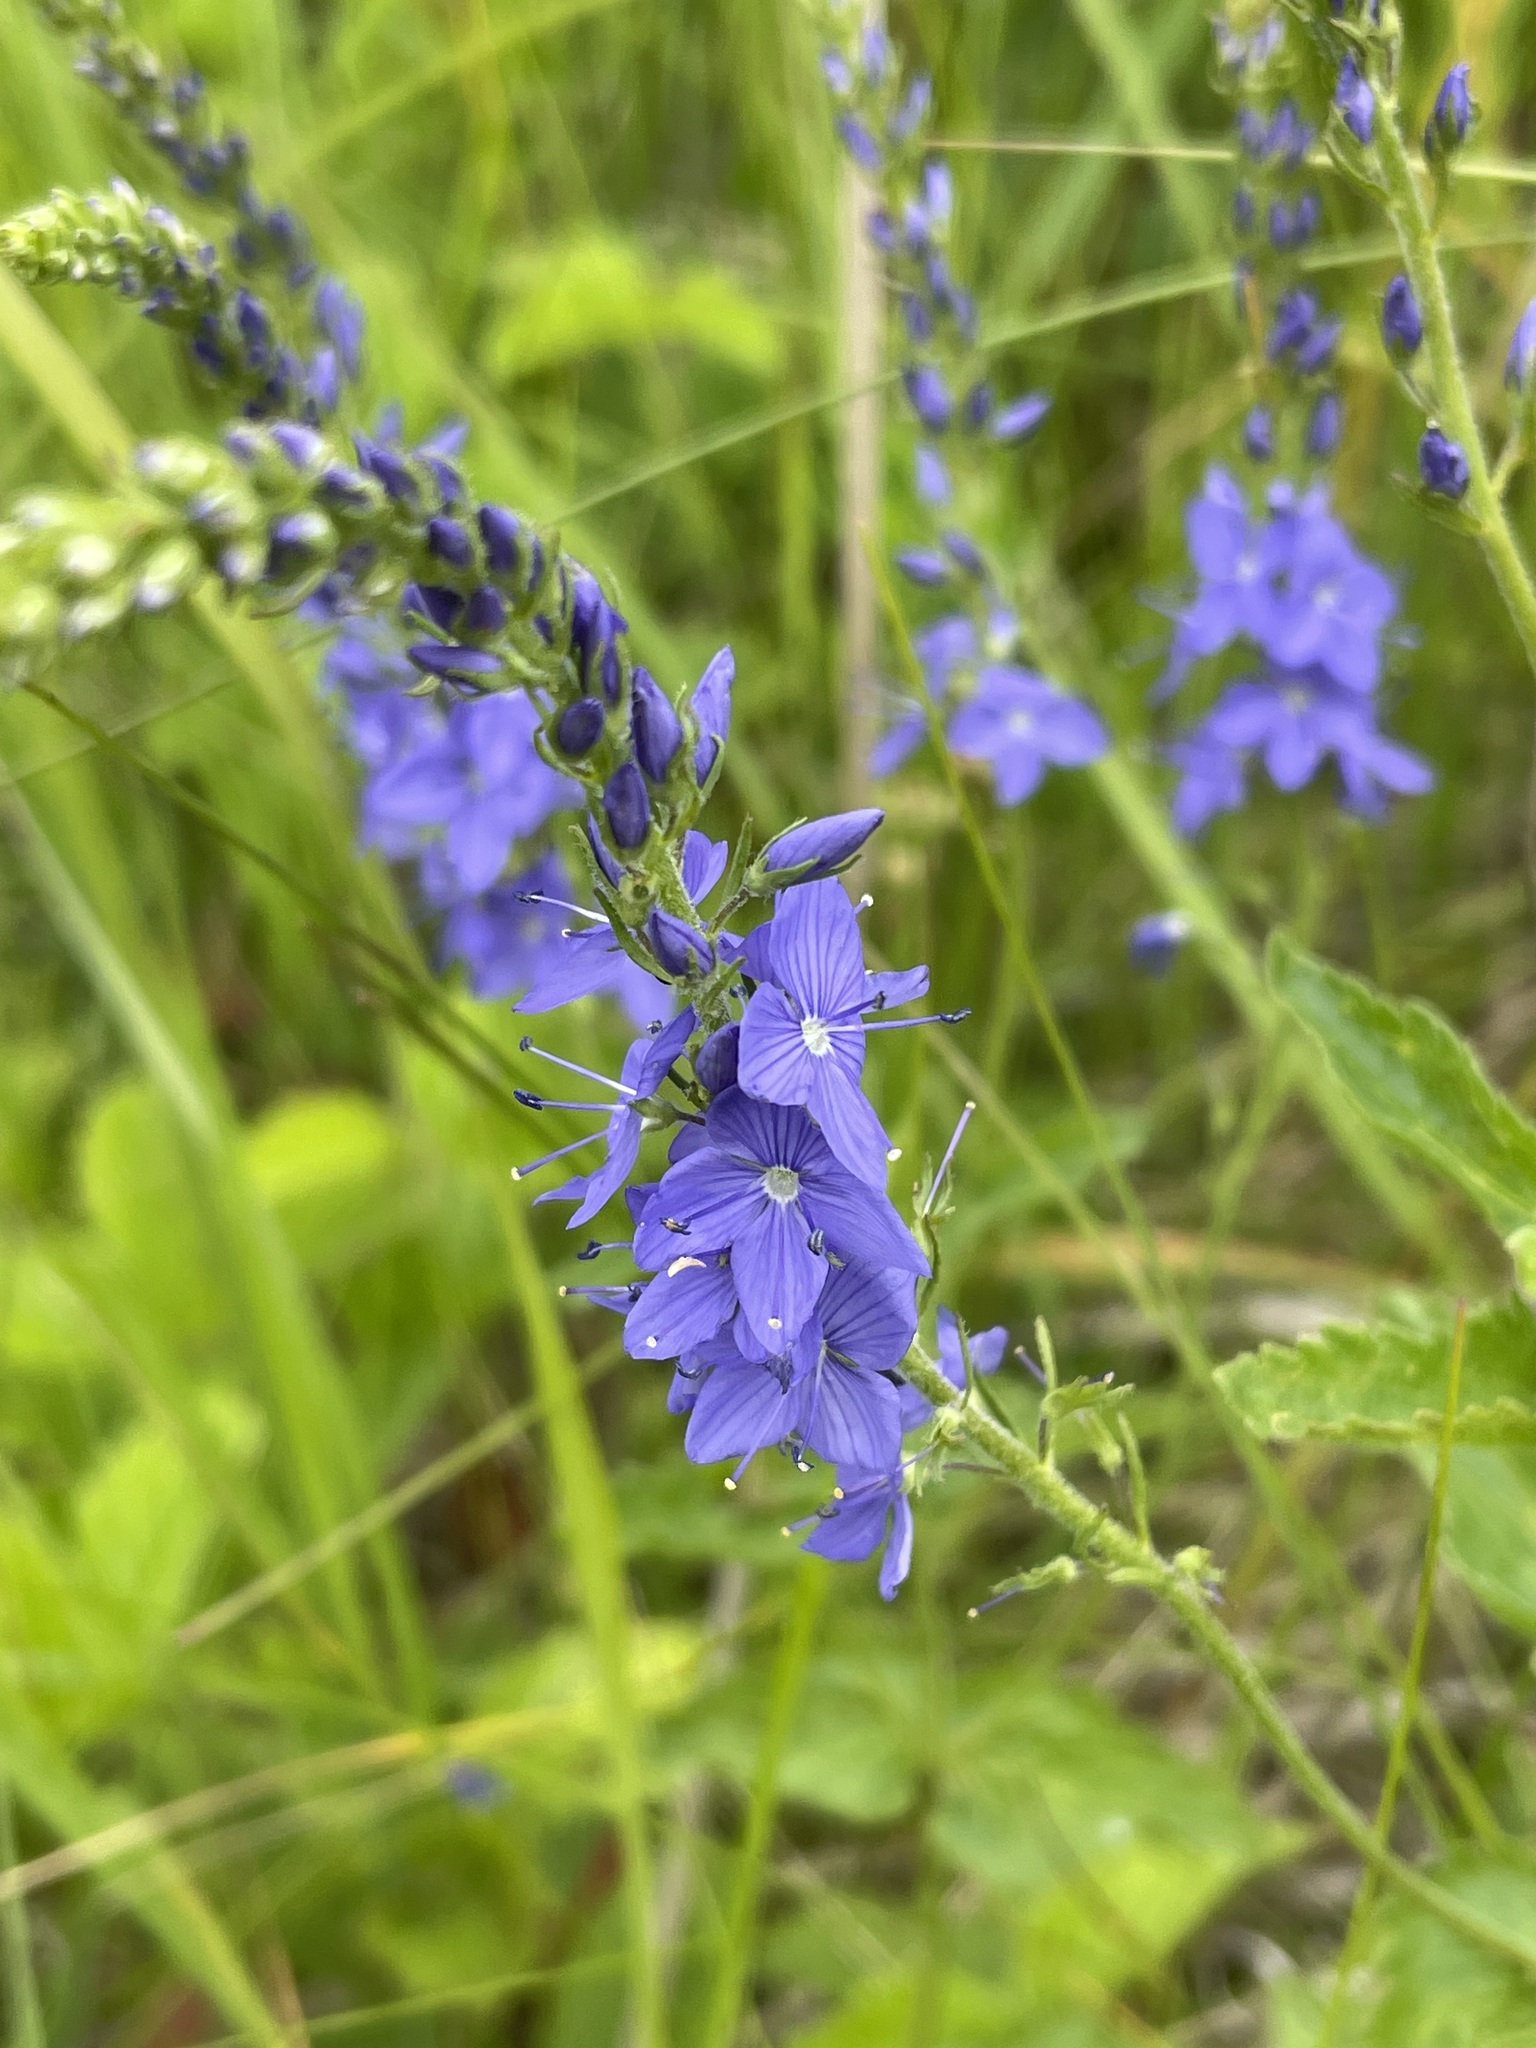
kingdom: Plantae
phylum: Tracheophyta
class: Magnoliopsida
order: Lamiales
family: Plantaginaceae
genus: Veronica
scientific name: Veronica teucrium
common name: Large speedwell
